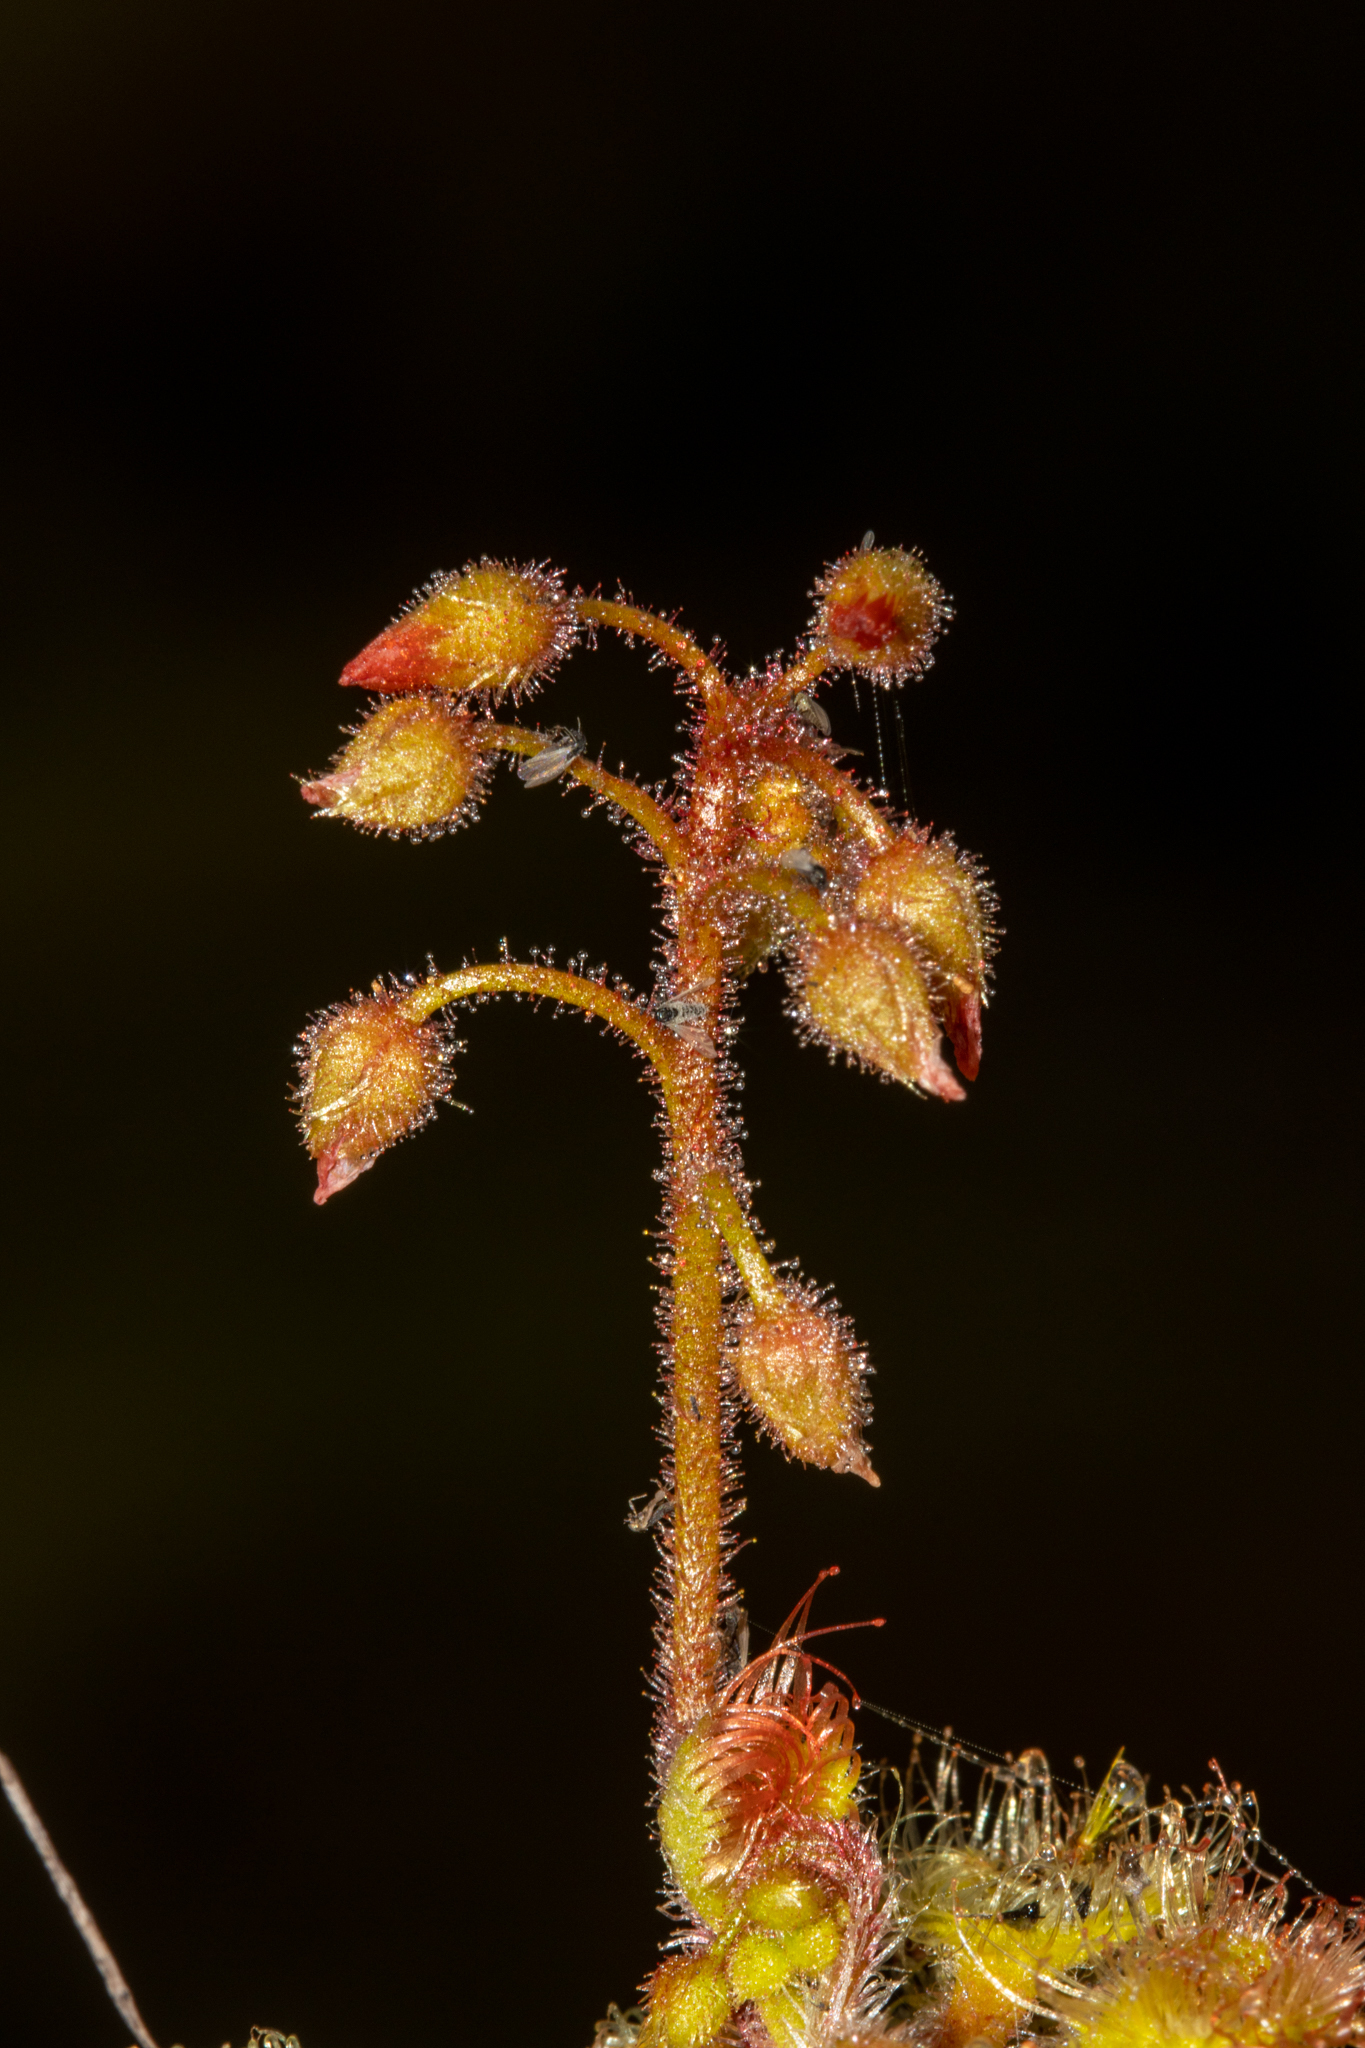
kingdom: Plantae
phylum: Tracheophyta
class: Magnoliopsida
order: Caryophyllales
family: Droseraceae
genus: Drosera
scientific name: Drosera glanduligera
